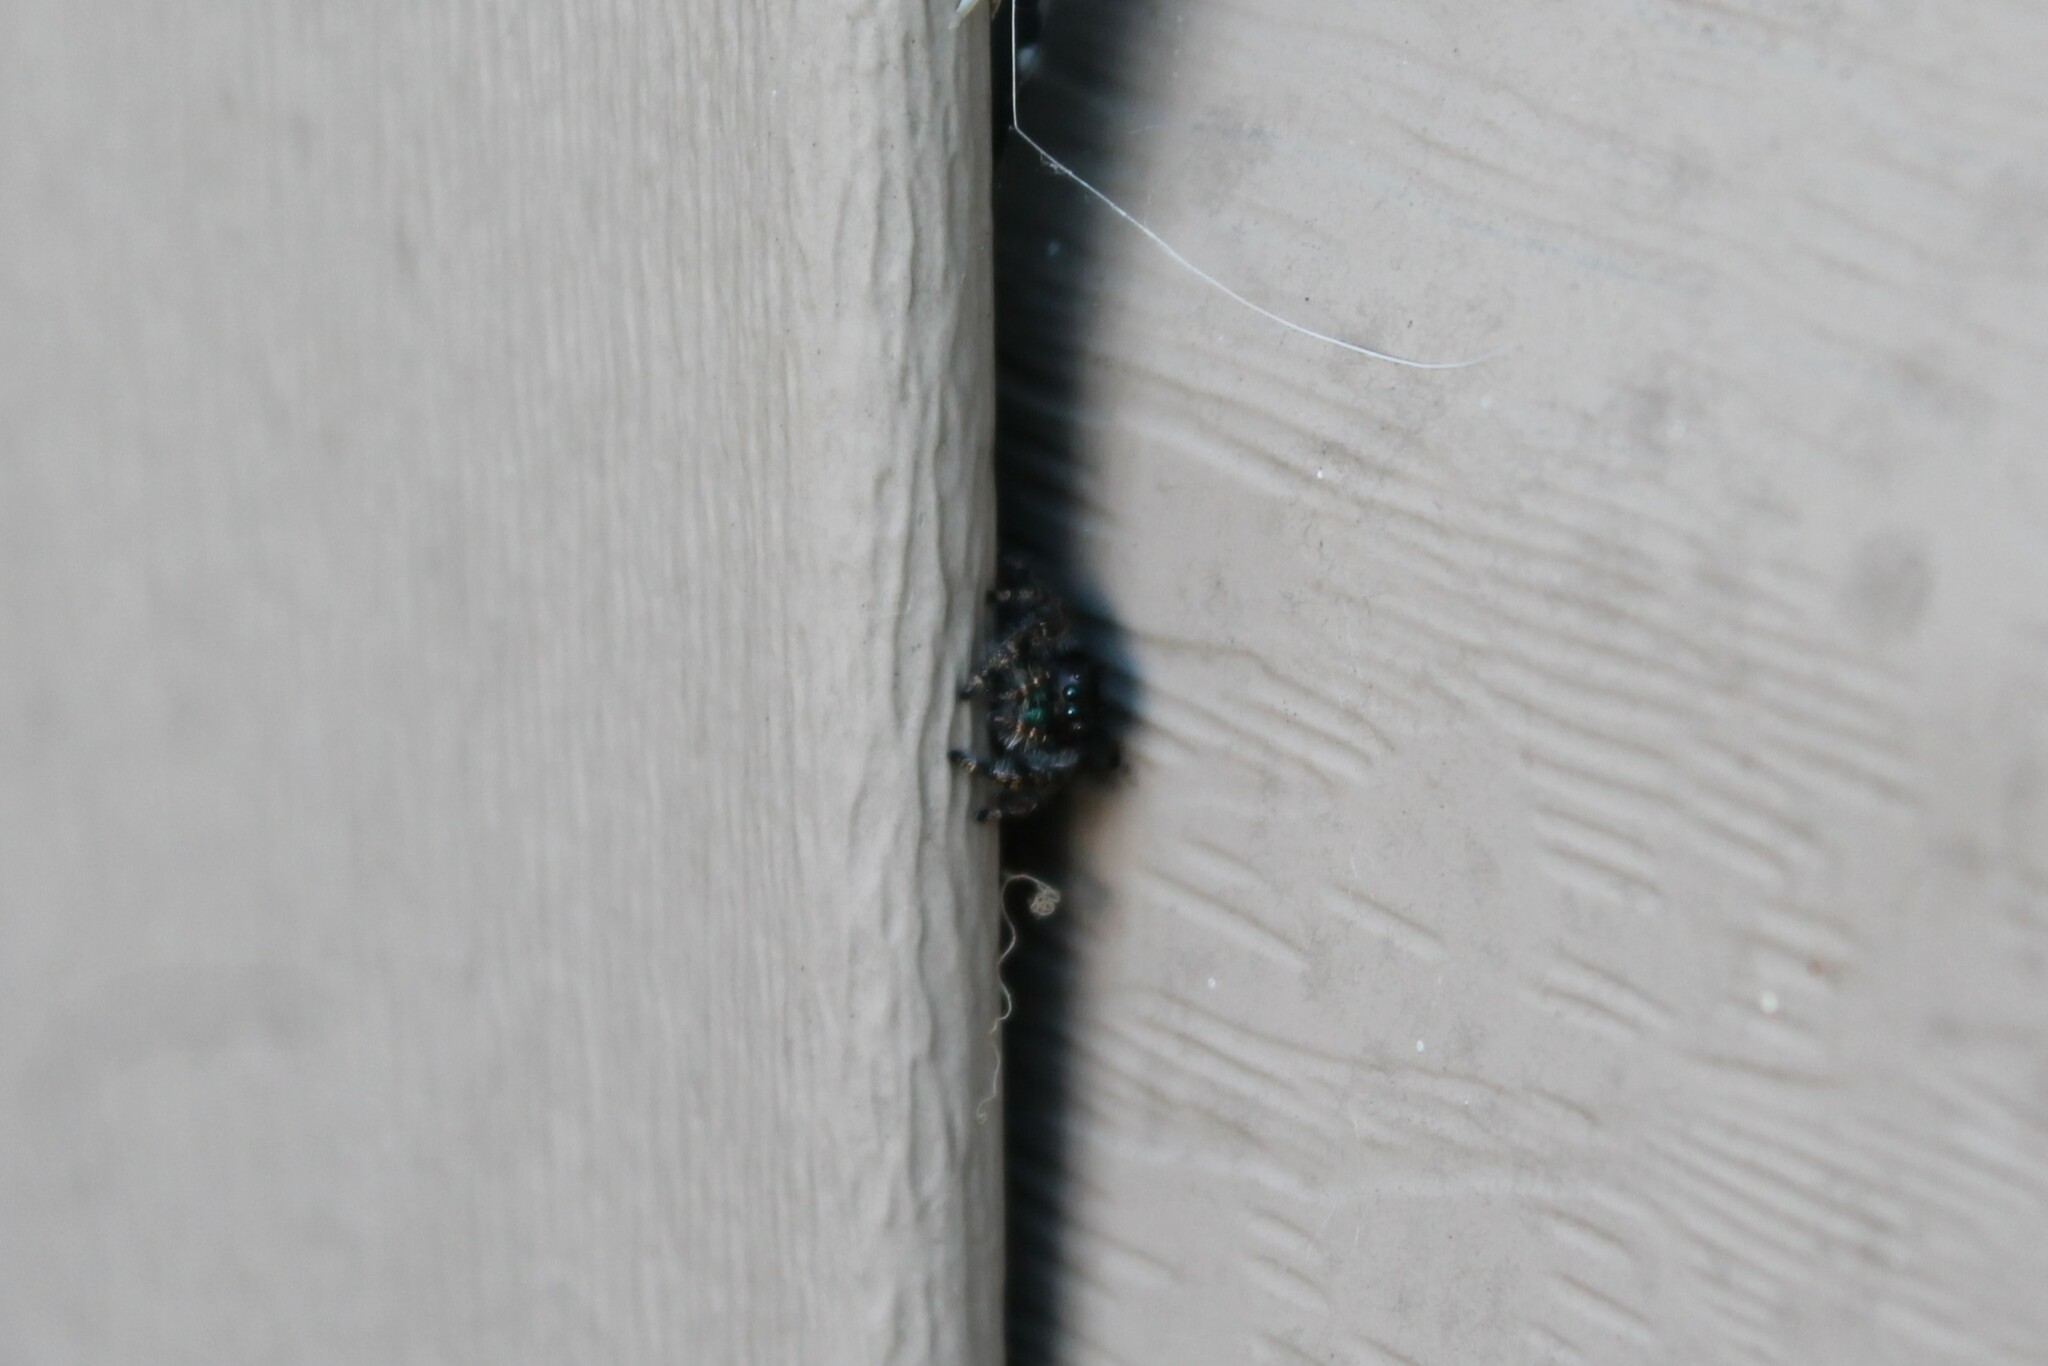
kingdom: Animalia
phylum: Arthropoda
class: Arachnida
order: Araneae
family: Salticidae
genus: Phidippus
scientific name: Phidippus audax
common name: Bold jumper
